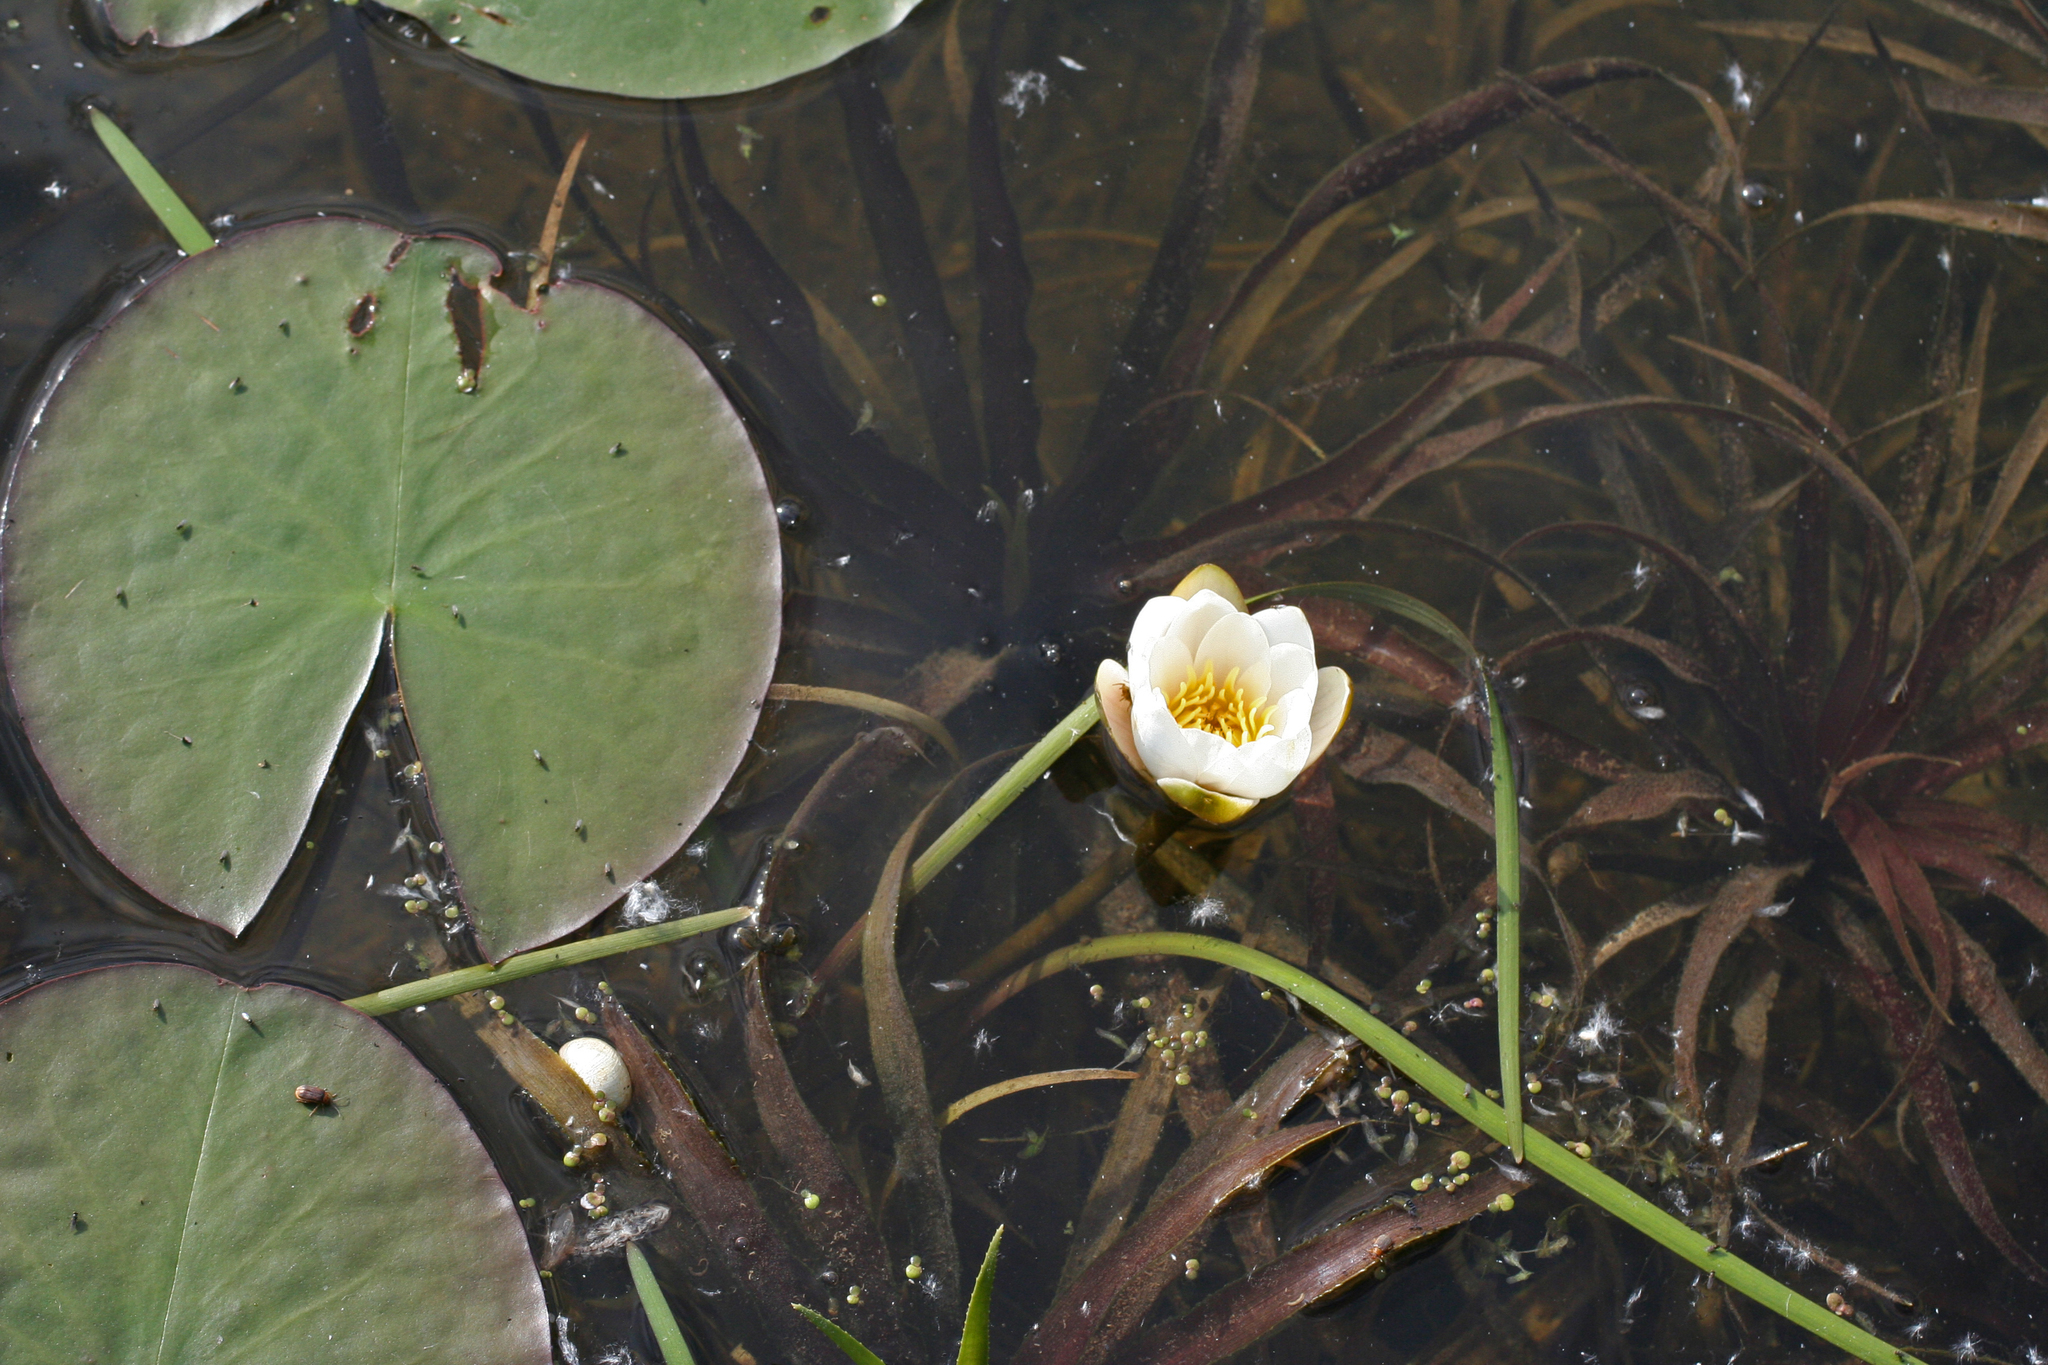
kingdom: Plantae
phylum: Tracheophyta
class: Magnoliopsida
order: Nymphaeales
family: Nymphaeaceae
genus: Nymphaea
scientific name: Nymphaea tetragona
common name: Pygmy water-lily
